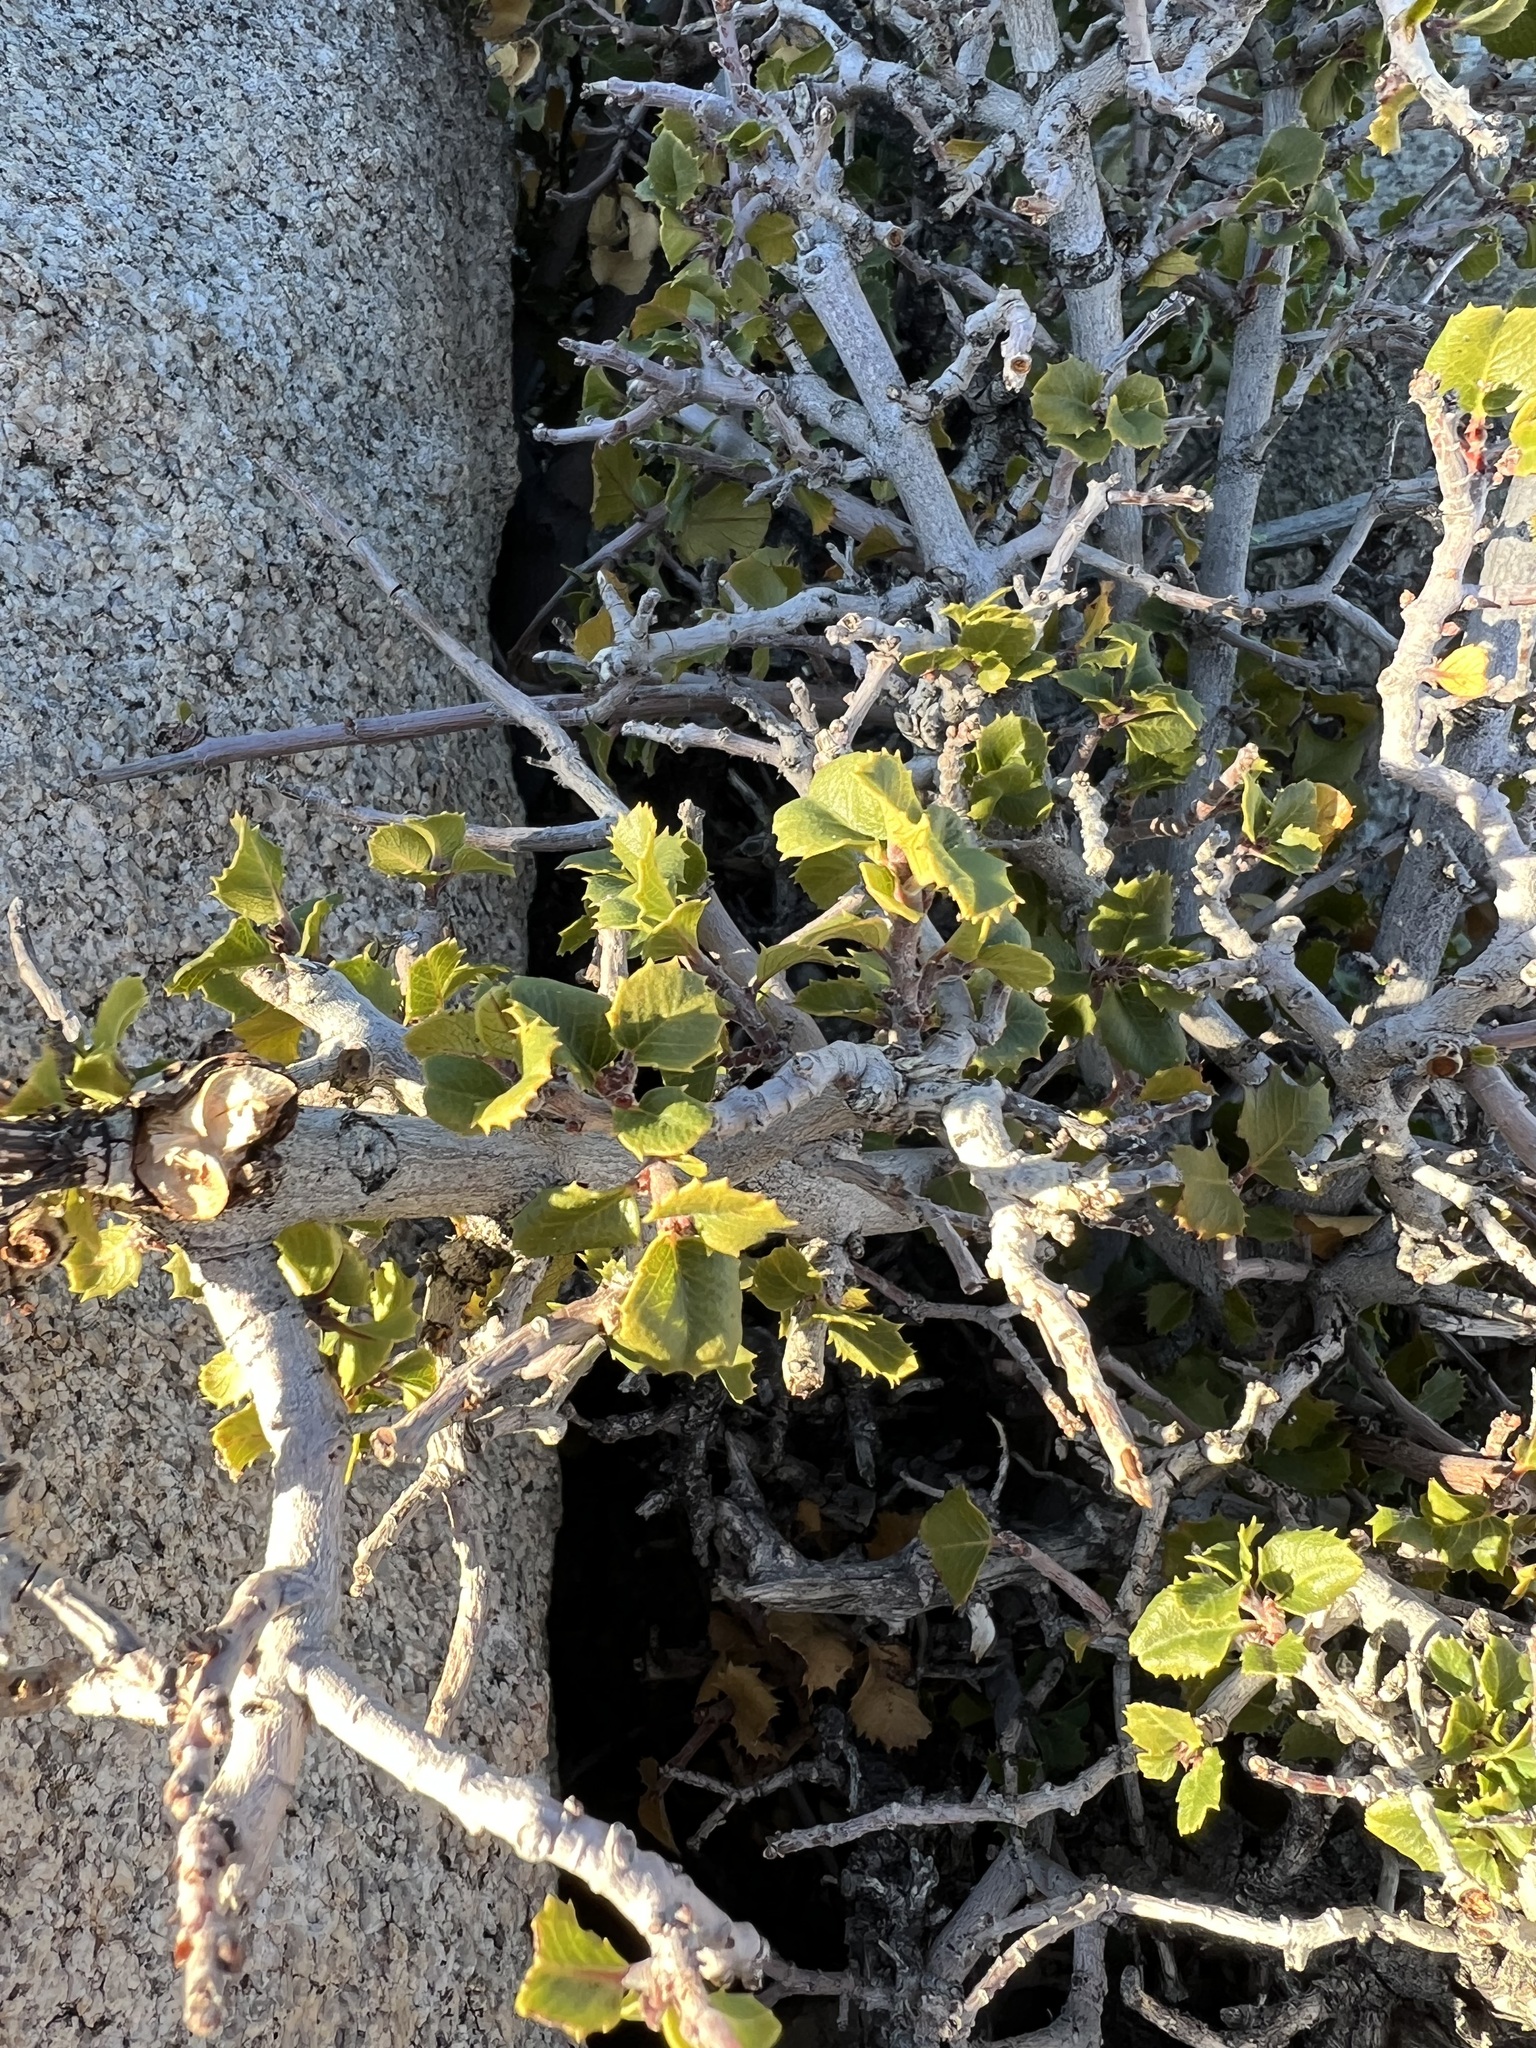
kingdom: Plantae
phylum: Tracheophyta
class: Magnoliopsida
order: Rosales
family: Rhamnaceae
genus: Endotropis
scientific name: Endotropis crocea
